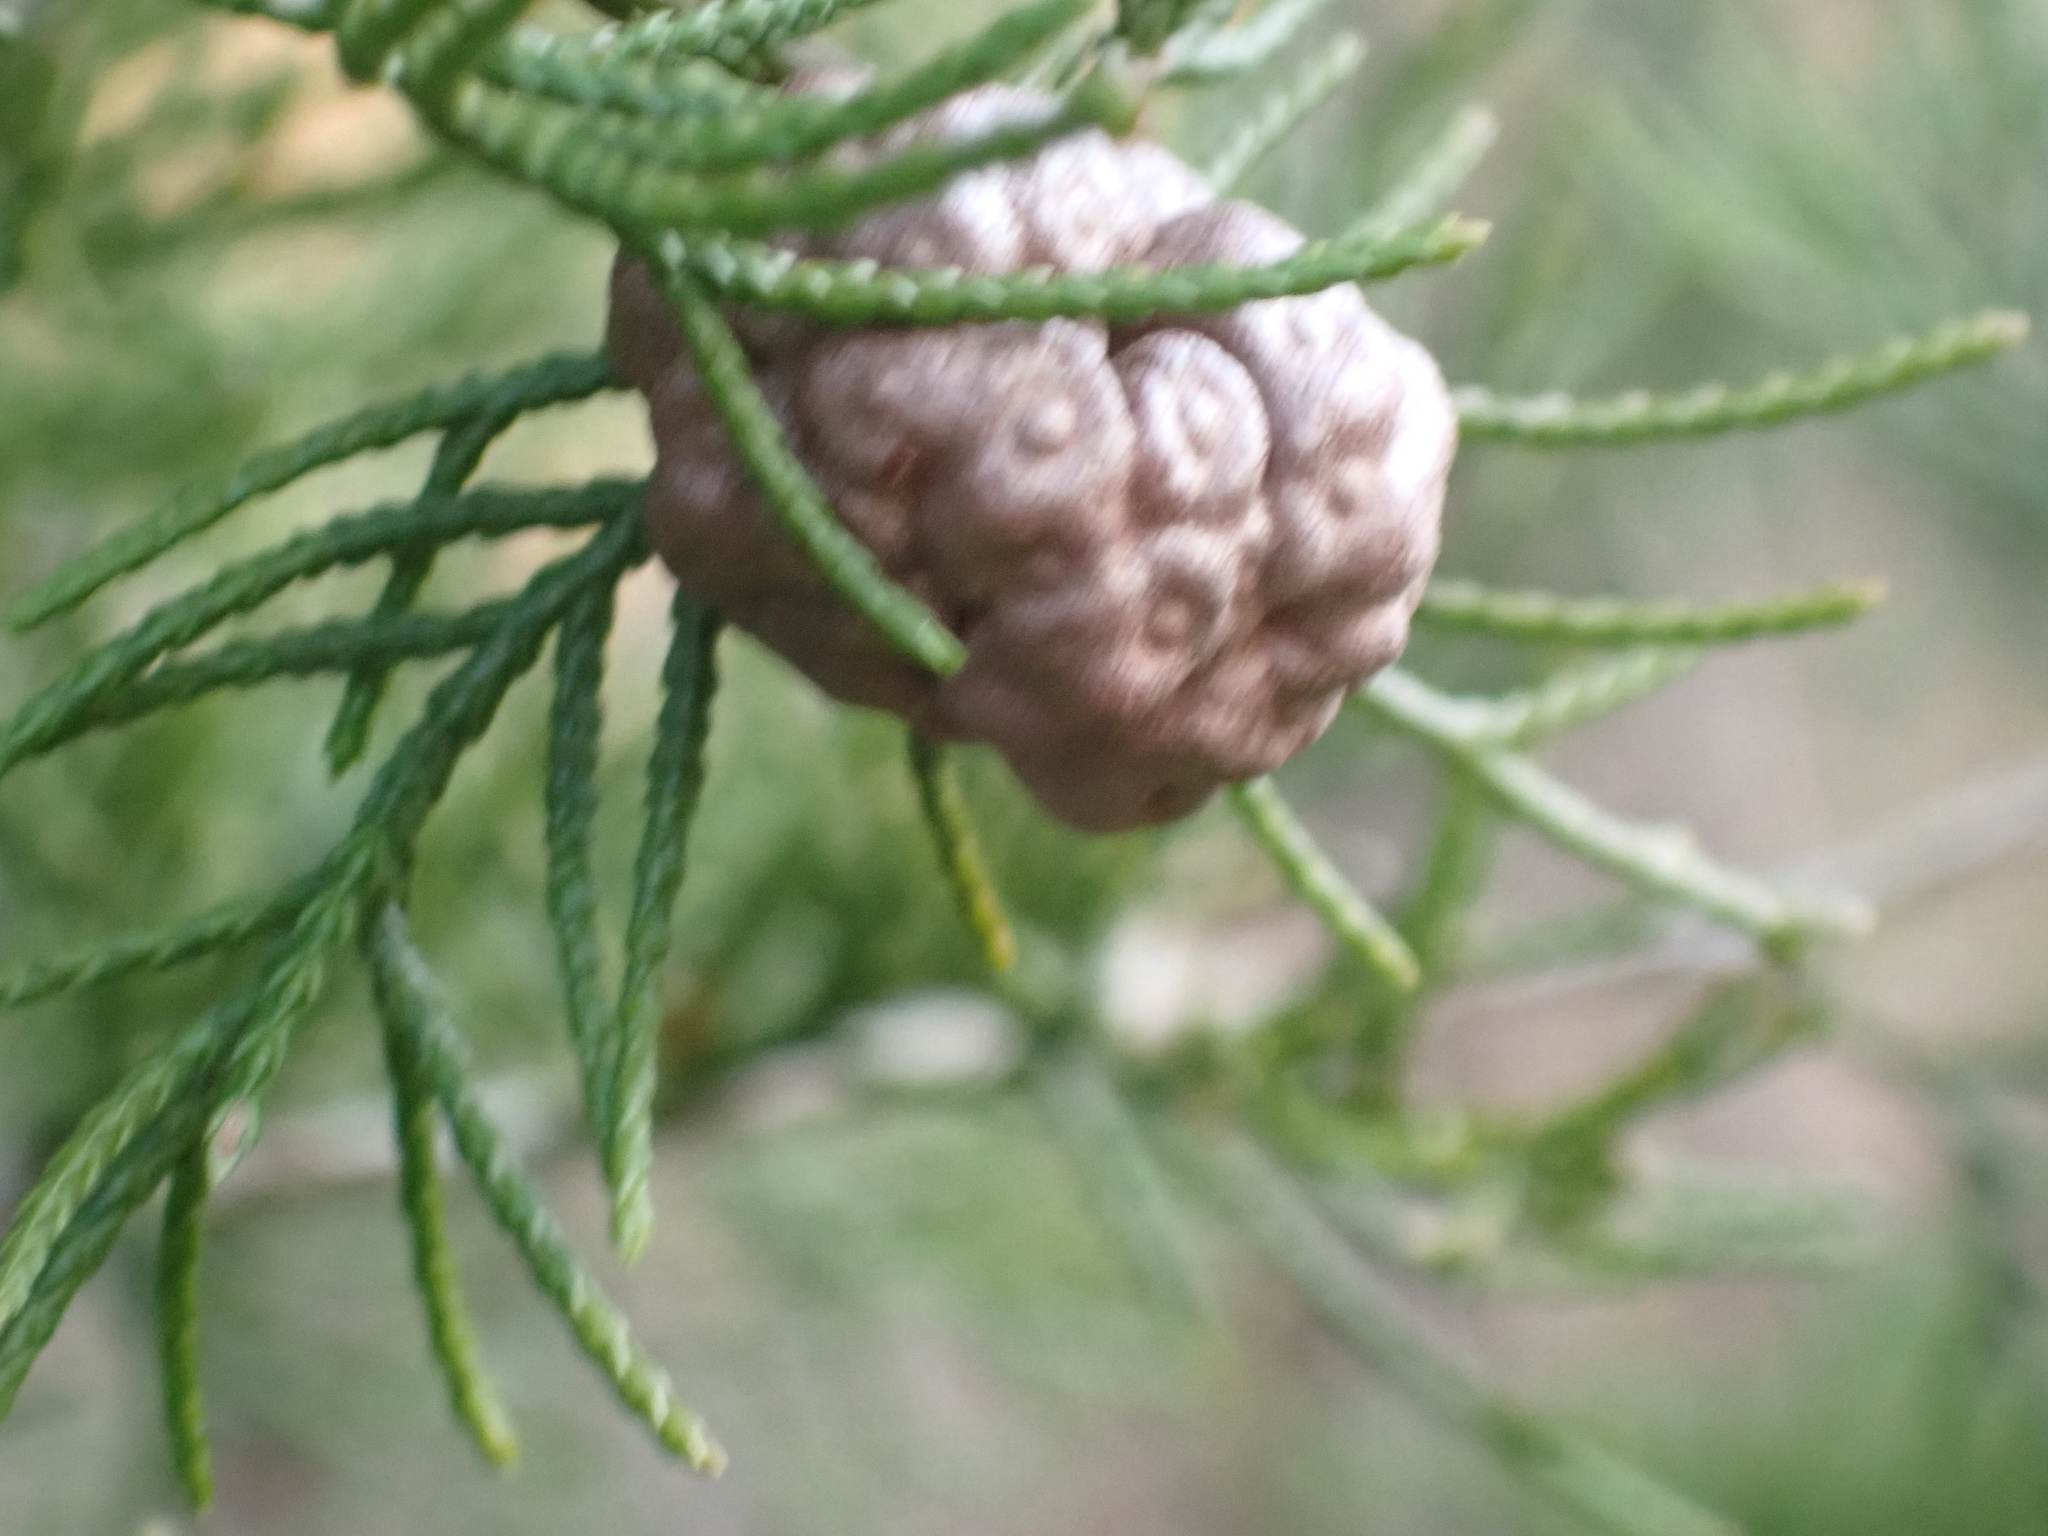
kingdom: Fungi
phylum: Basidiomycota
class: Pucciniomycetes
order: Pucciniales
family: Gymnosporangiaceae
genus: Gymnosporangium
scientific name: Gymnosporangium juniperi-virginianae
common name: Juniper-apple rust
